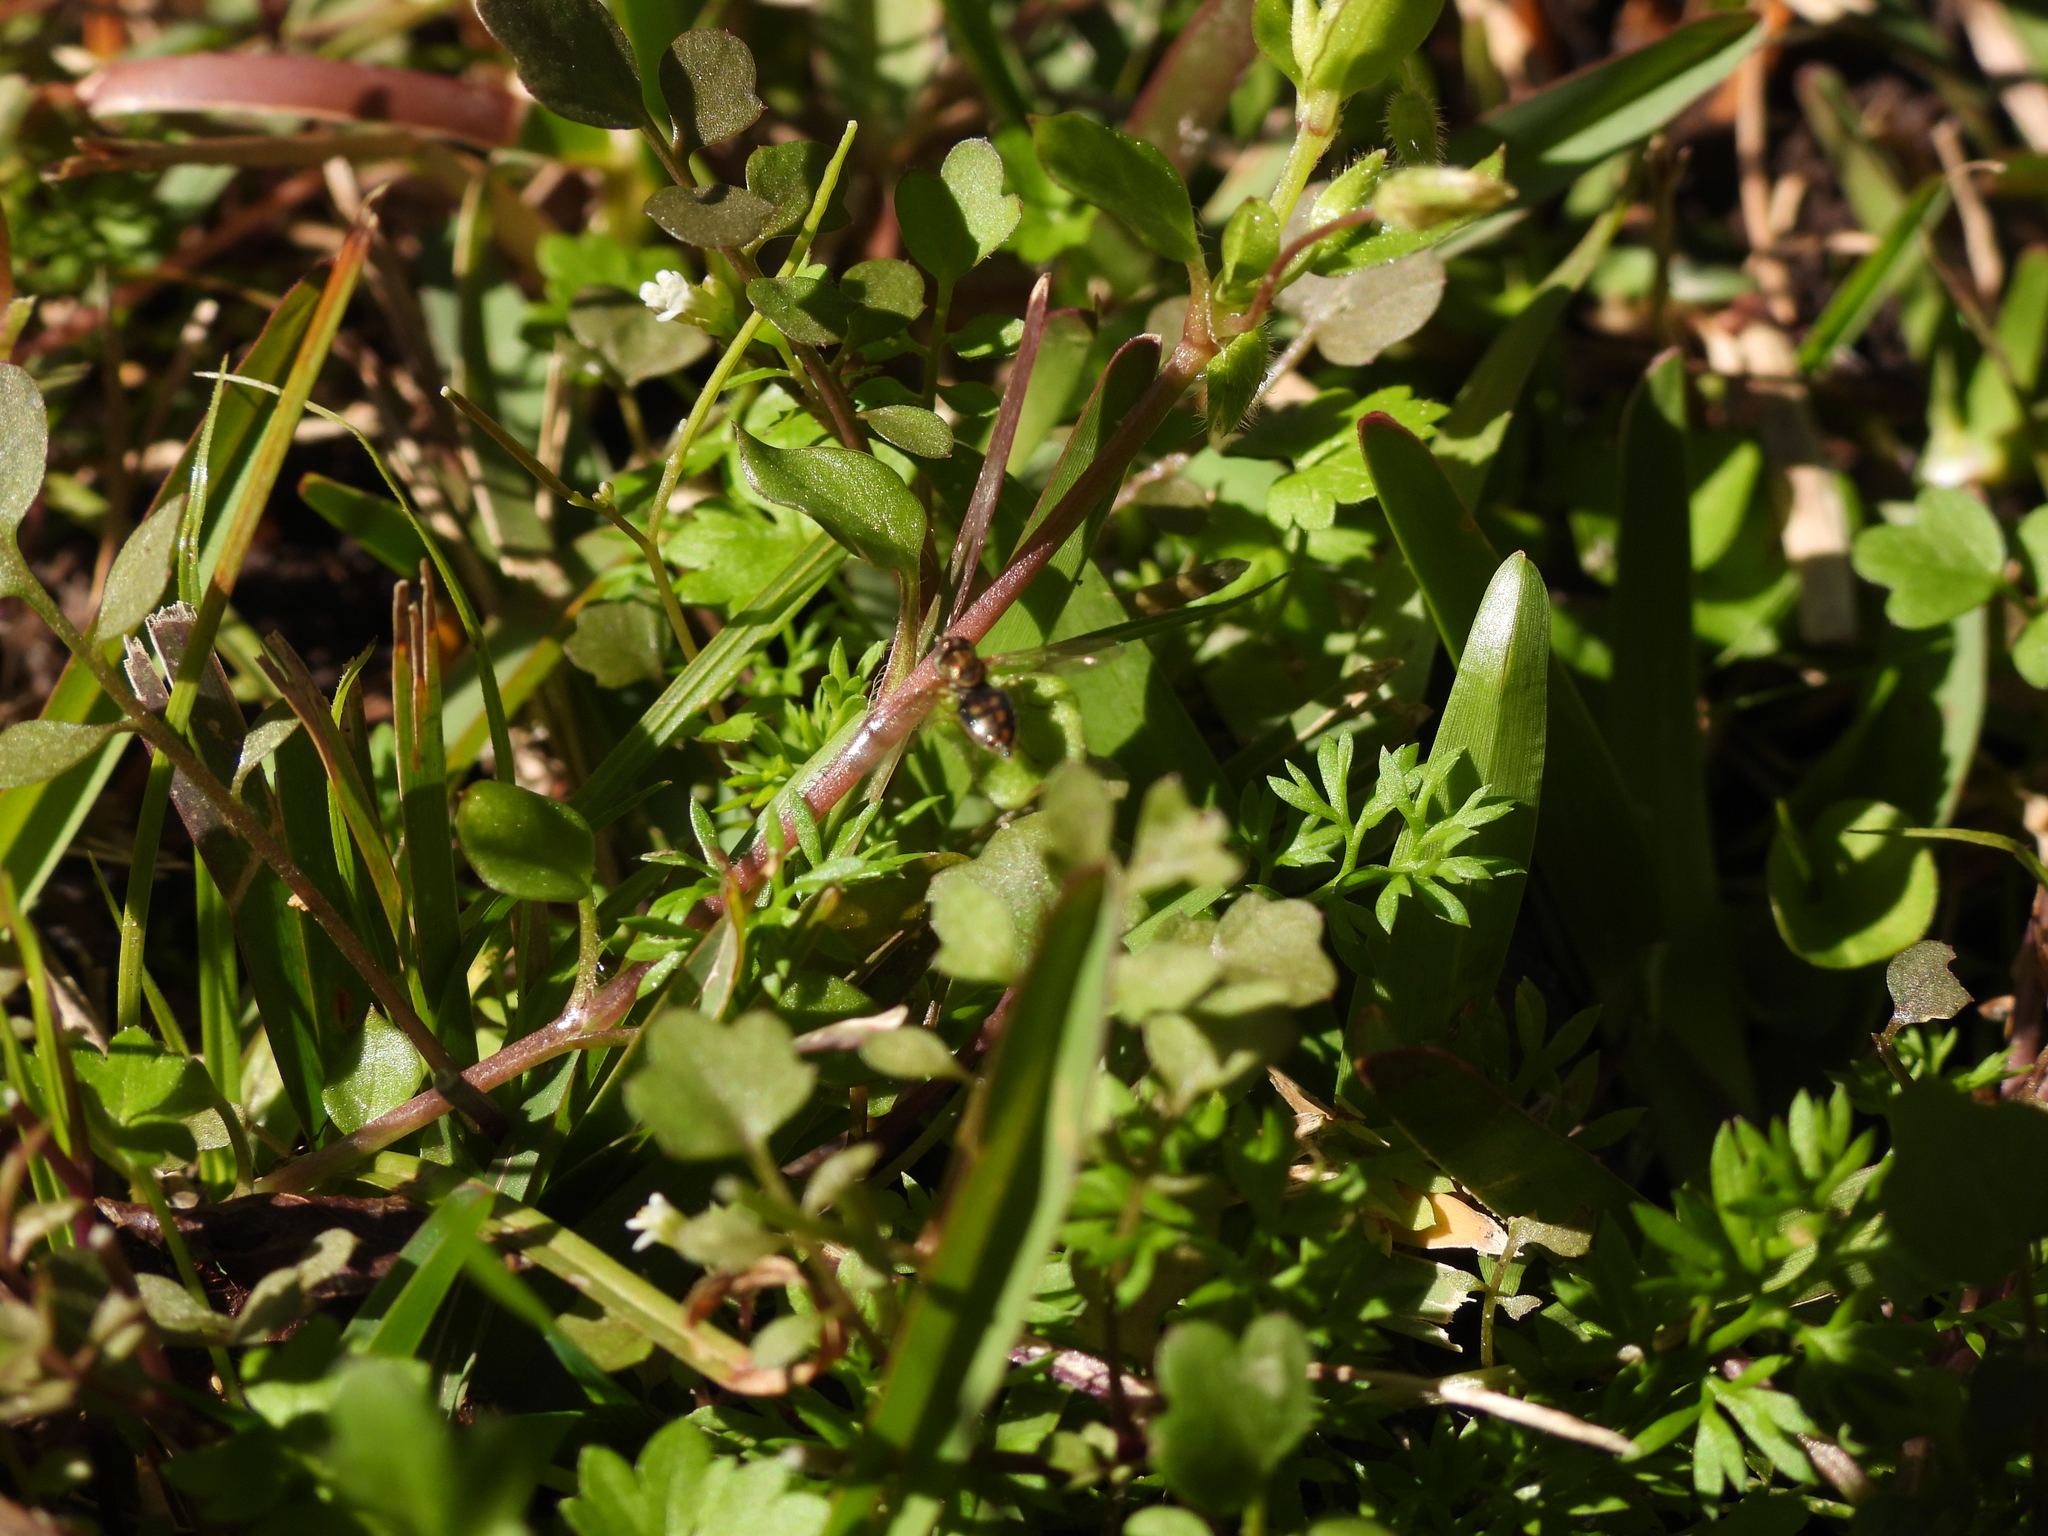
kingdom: Animalia
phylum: Arthropoda
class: Insecta
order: Diptera
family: Syrphidae
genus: Toxomerus
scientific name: Toxomerus marginatus
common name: Syrphid fly
